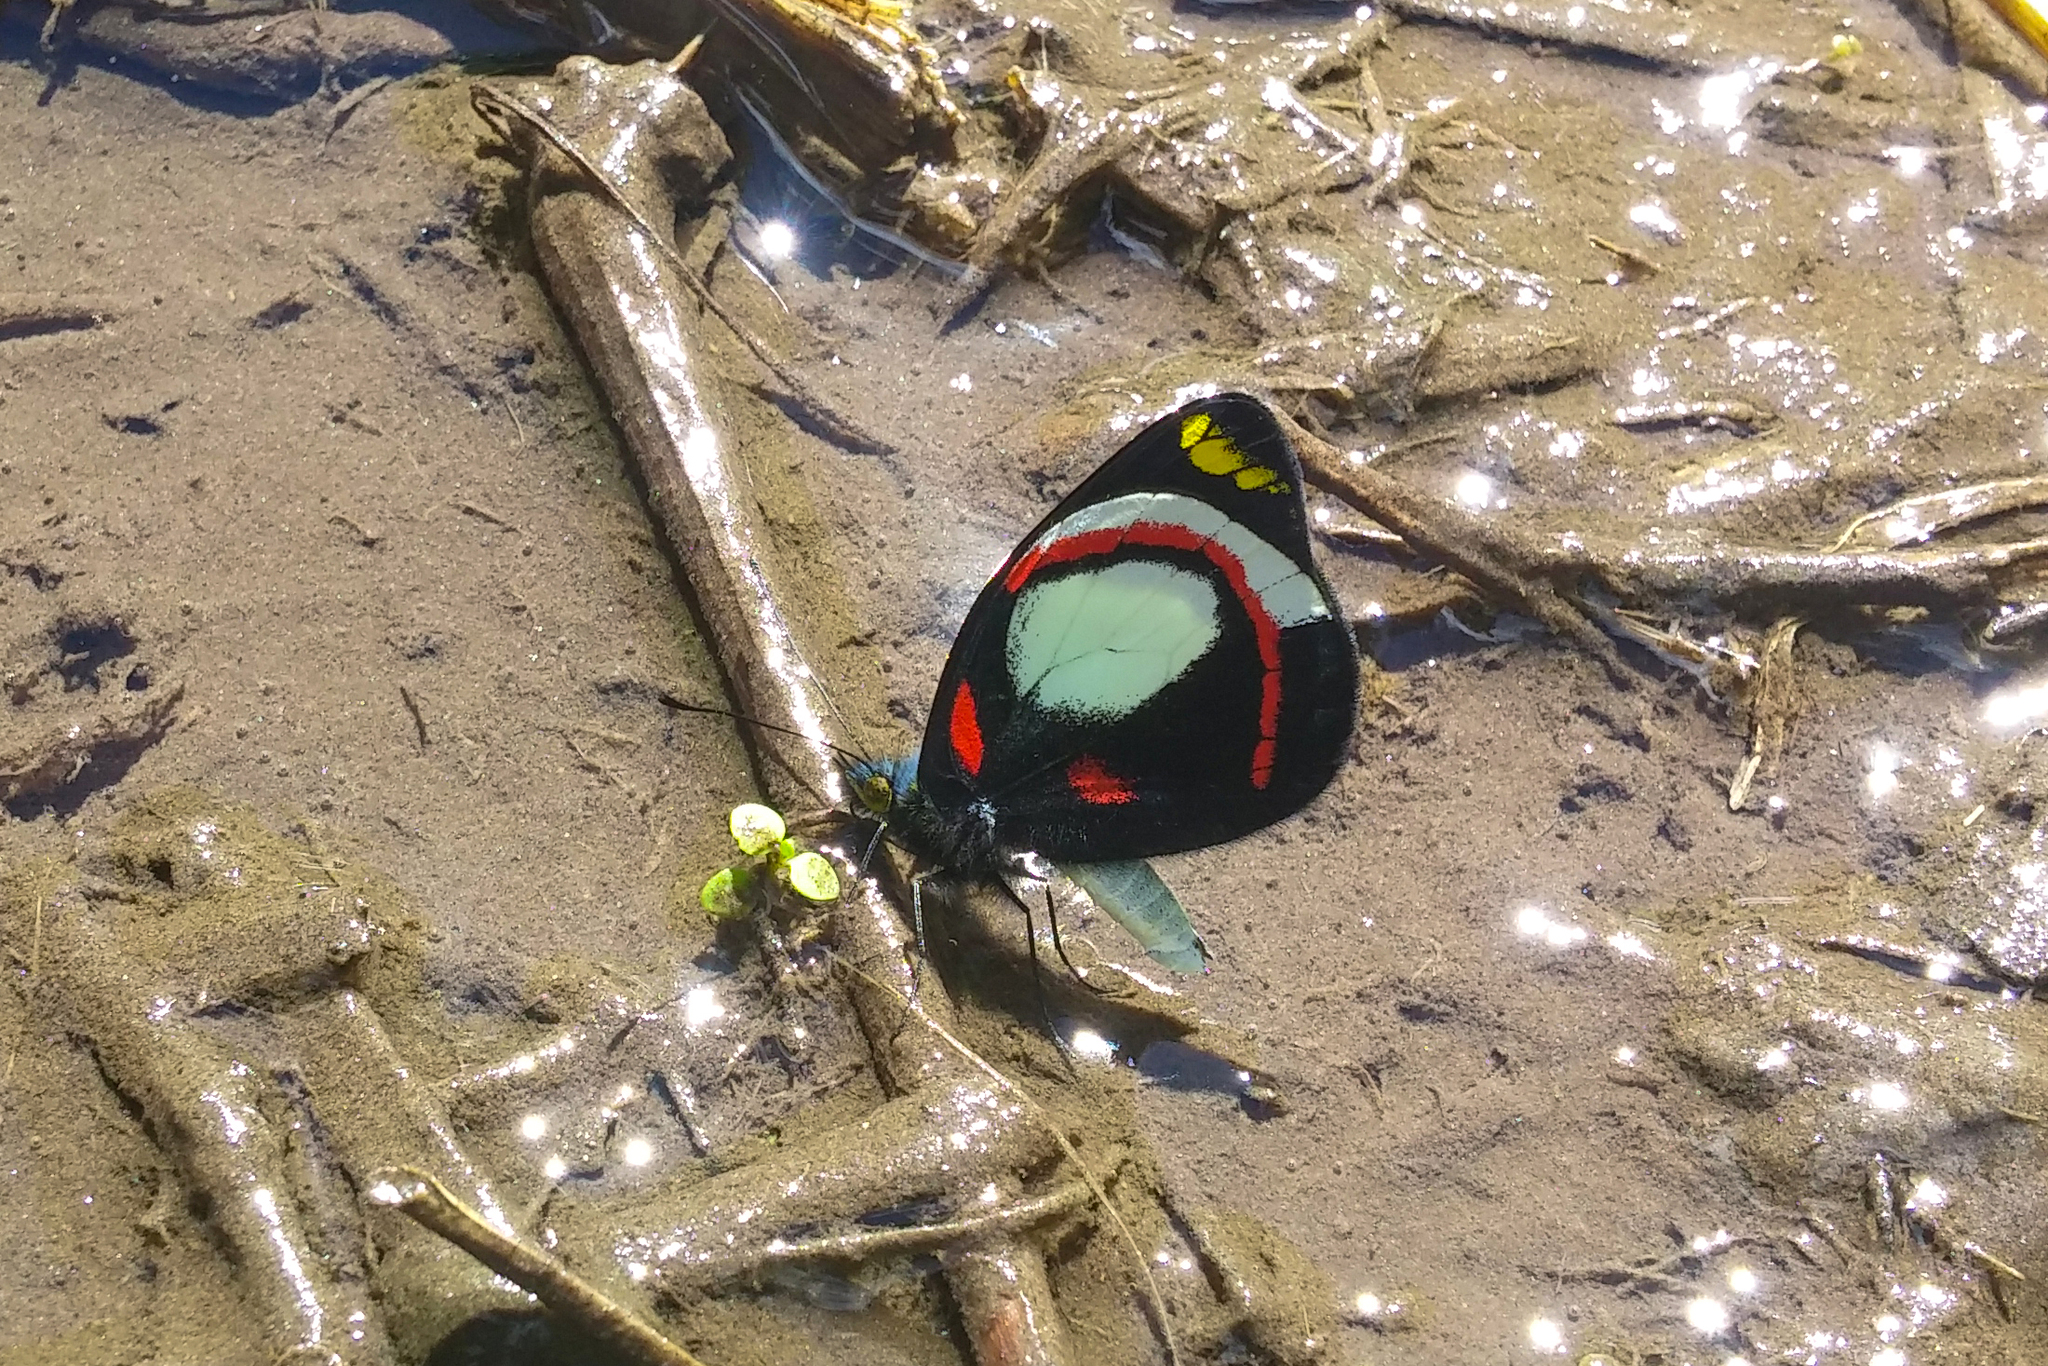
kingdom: Animalia
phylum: Arthropoda
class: Insecta
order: Lepidoptera
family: Pieridae
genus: Delias
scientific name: Delias ligata
